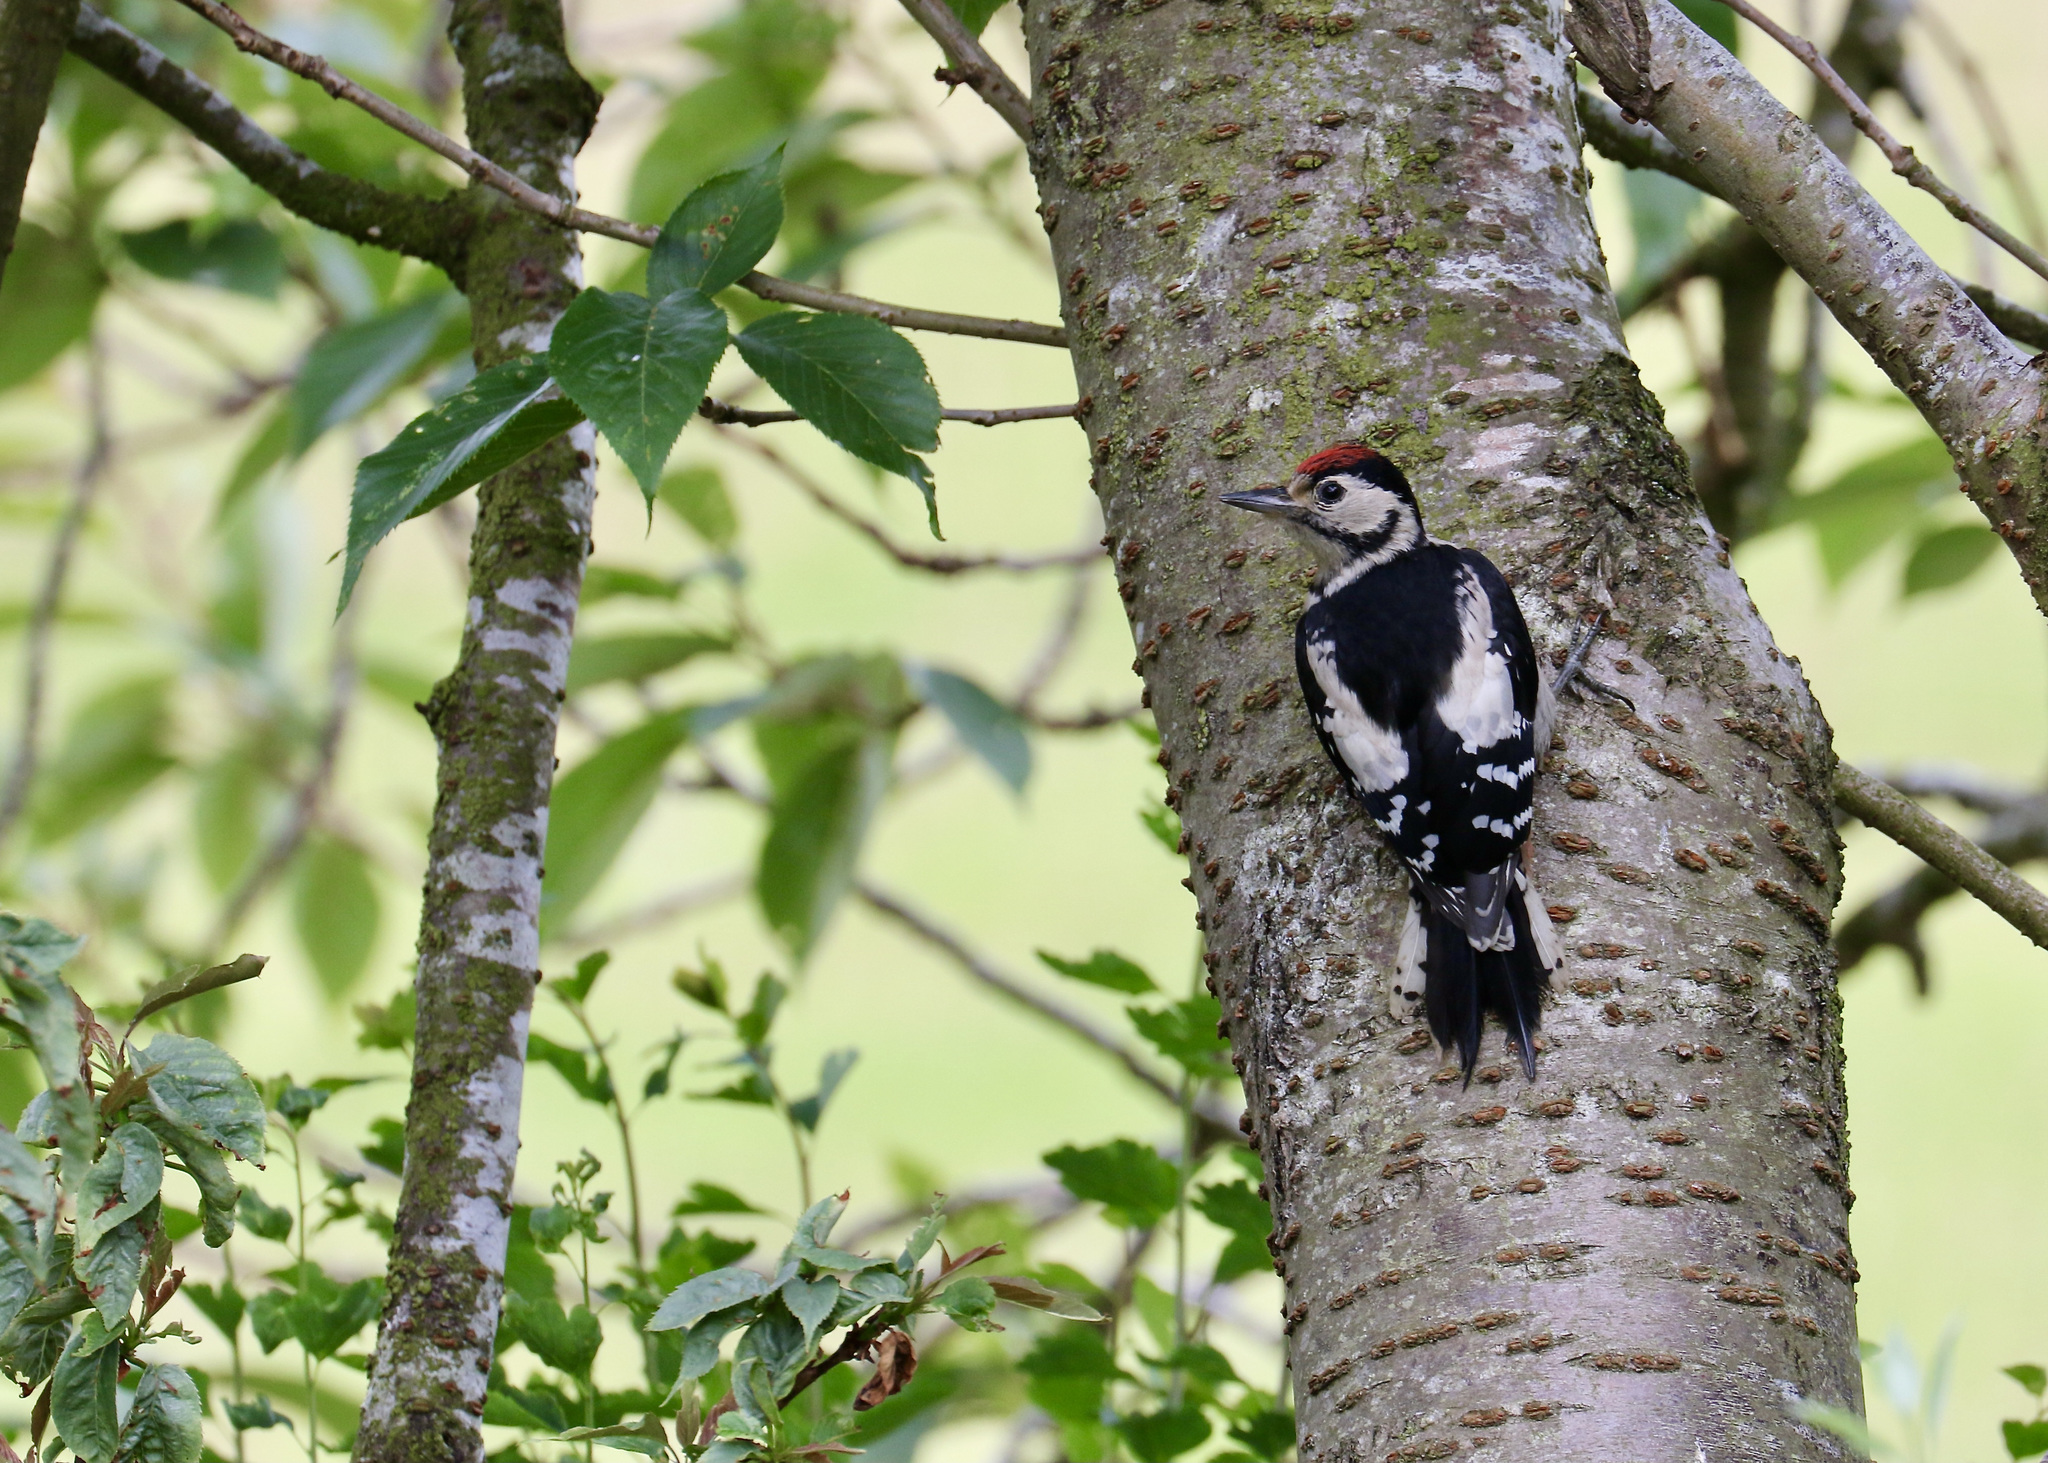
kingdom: Animalia
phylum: Chordata
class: Aves
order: Piciformes
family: Picidae
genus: Dendrocopos
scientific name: Dendrocopos major
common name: Great spotted woodpecker
